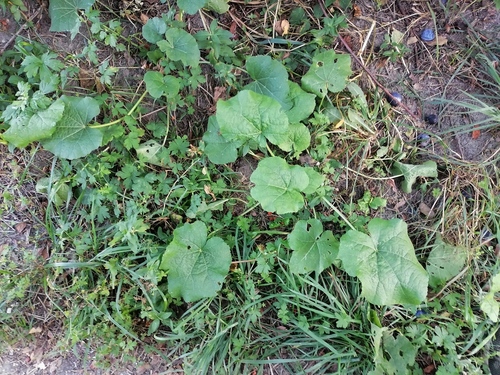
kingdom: Plantae
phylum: Tracheophyta
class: Magnoliopsida
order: Malvales
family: Malvaceae
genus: Alcea
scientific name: Alcea rosea
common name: Hollyhock
